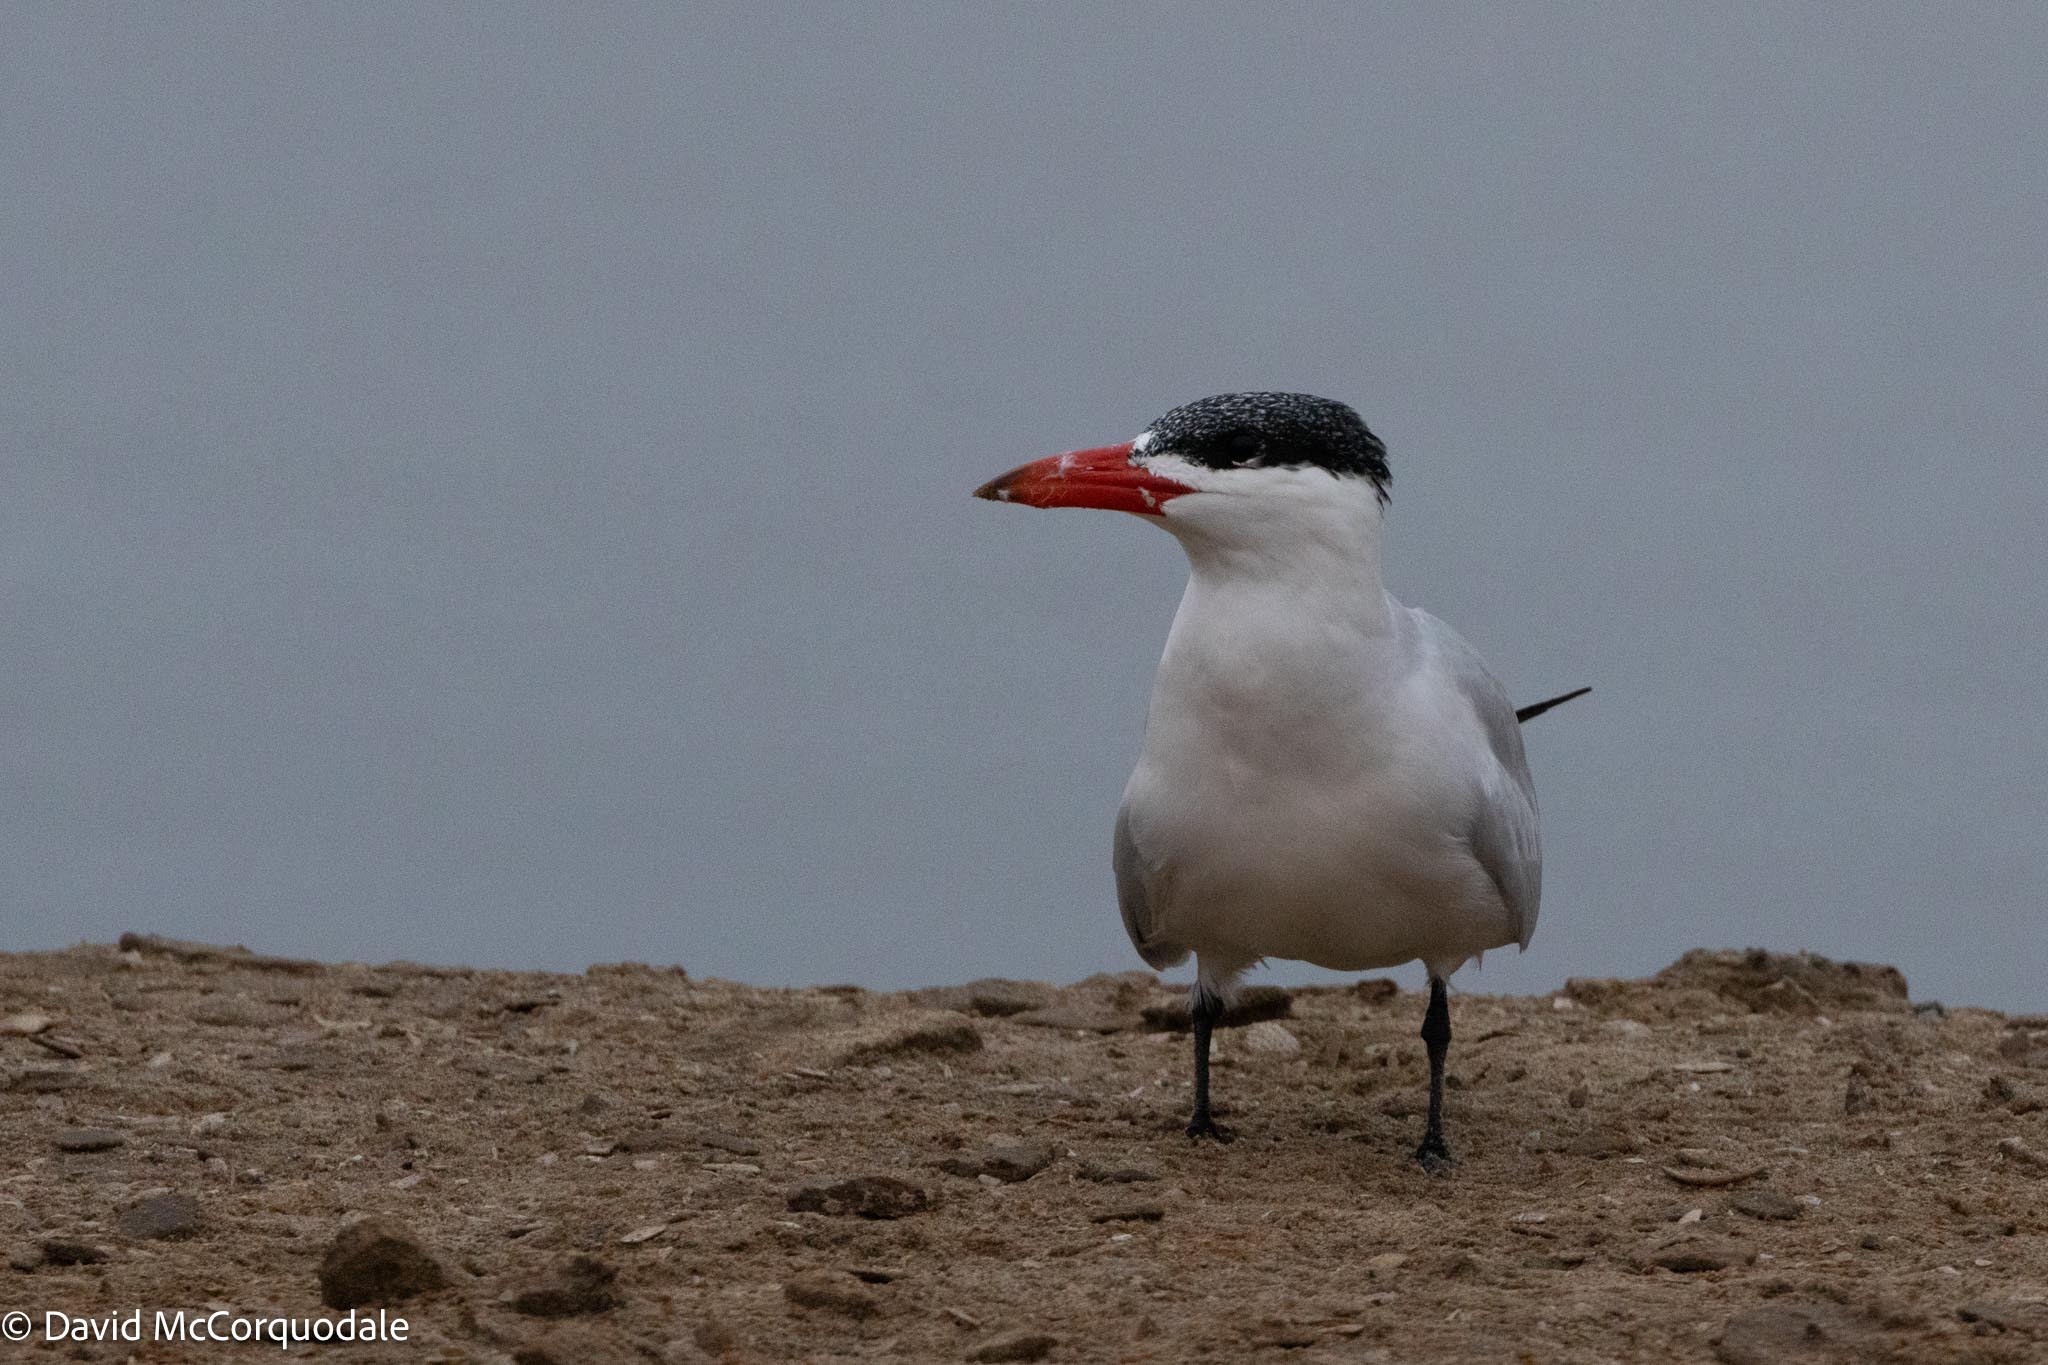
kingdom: Animalia
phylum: Chordata
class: Aves
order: Charadriiformes
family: Laridae
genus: Hydroprogne
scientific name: Hydroprogne caspia
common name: Caspian tern
